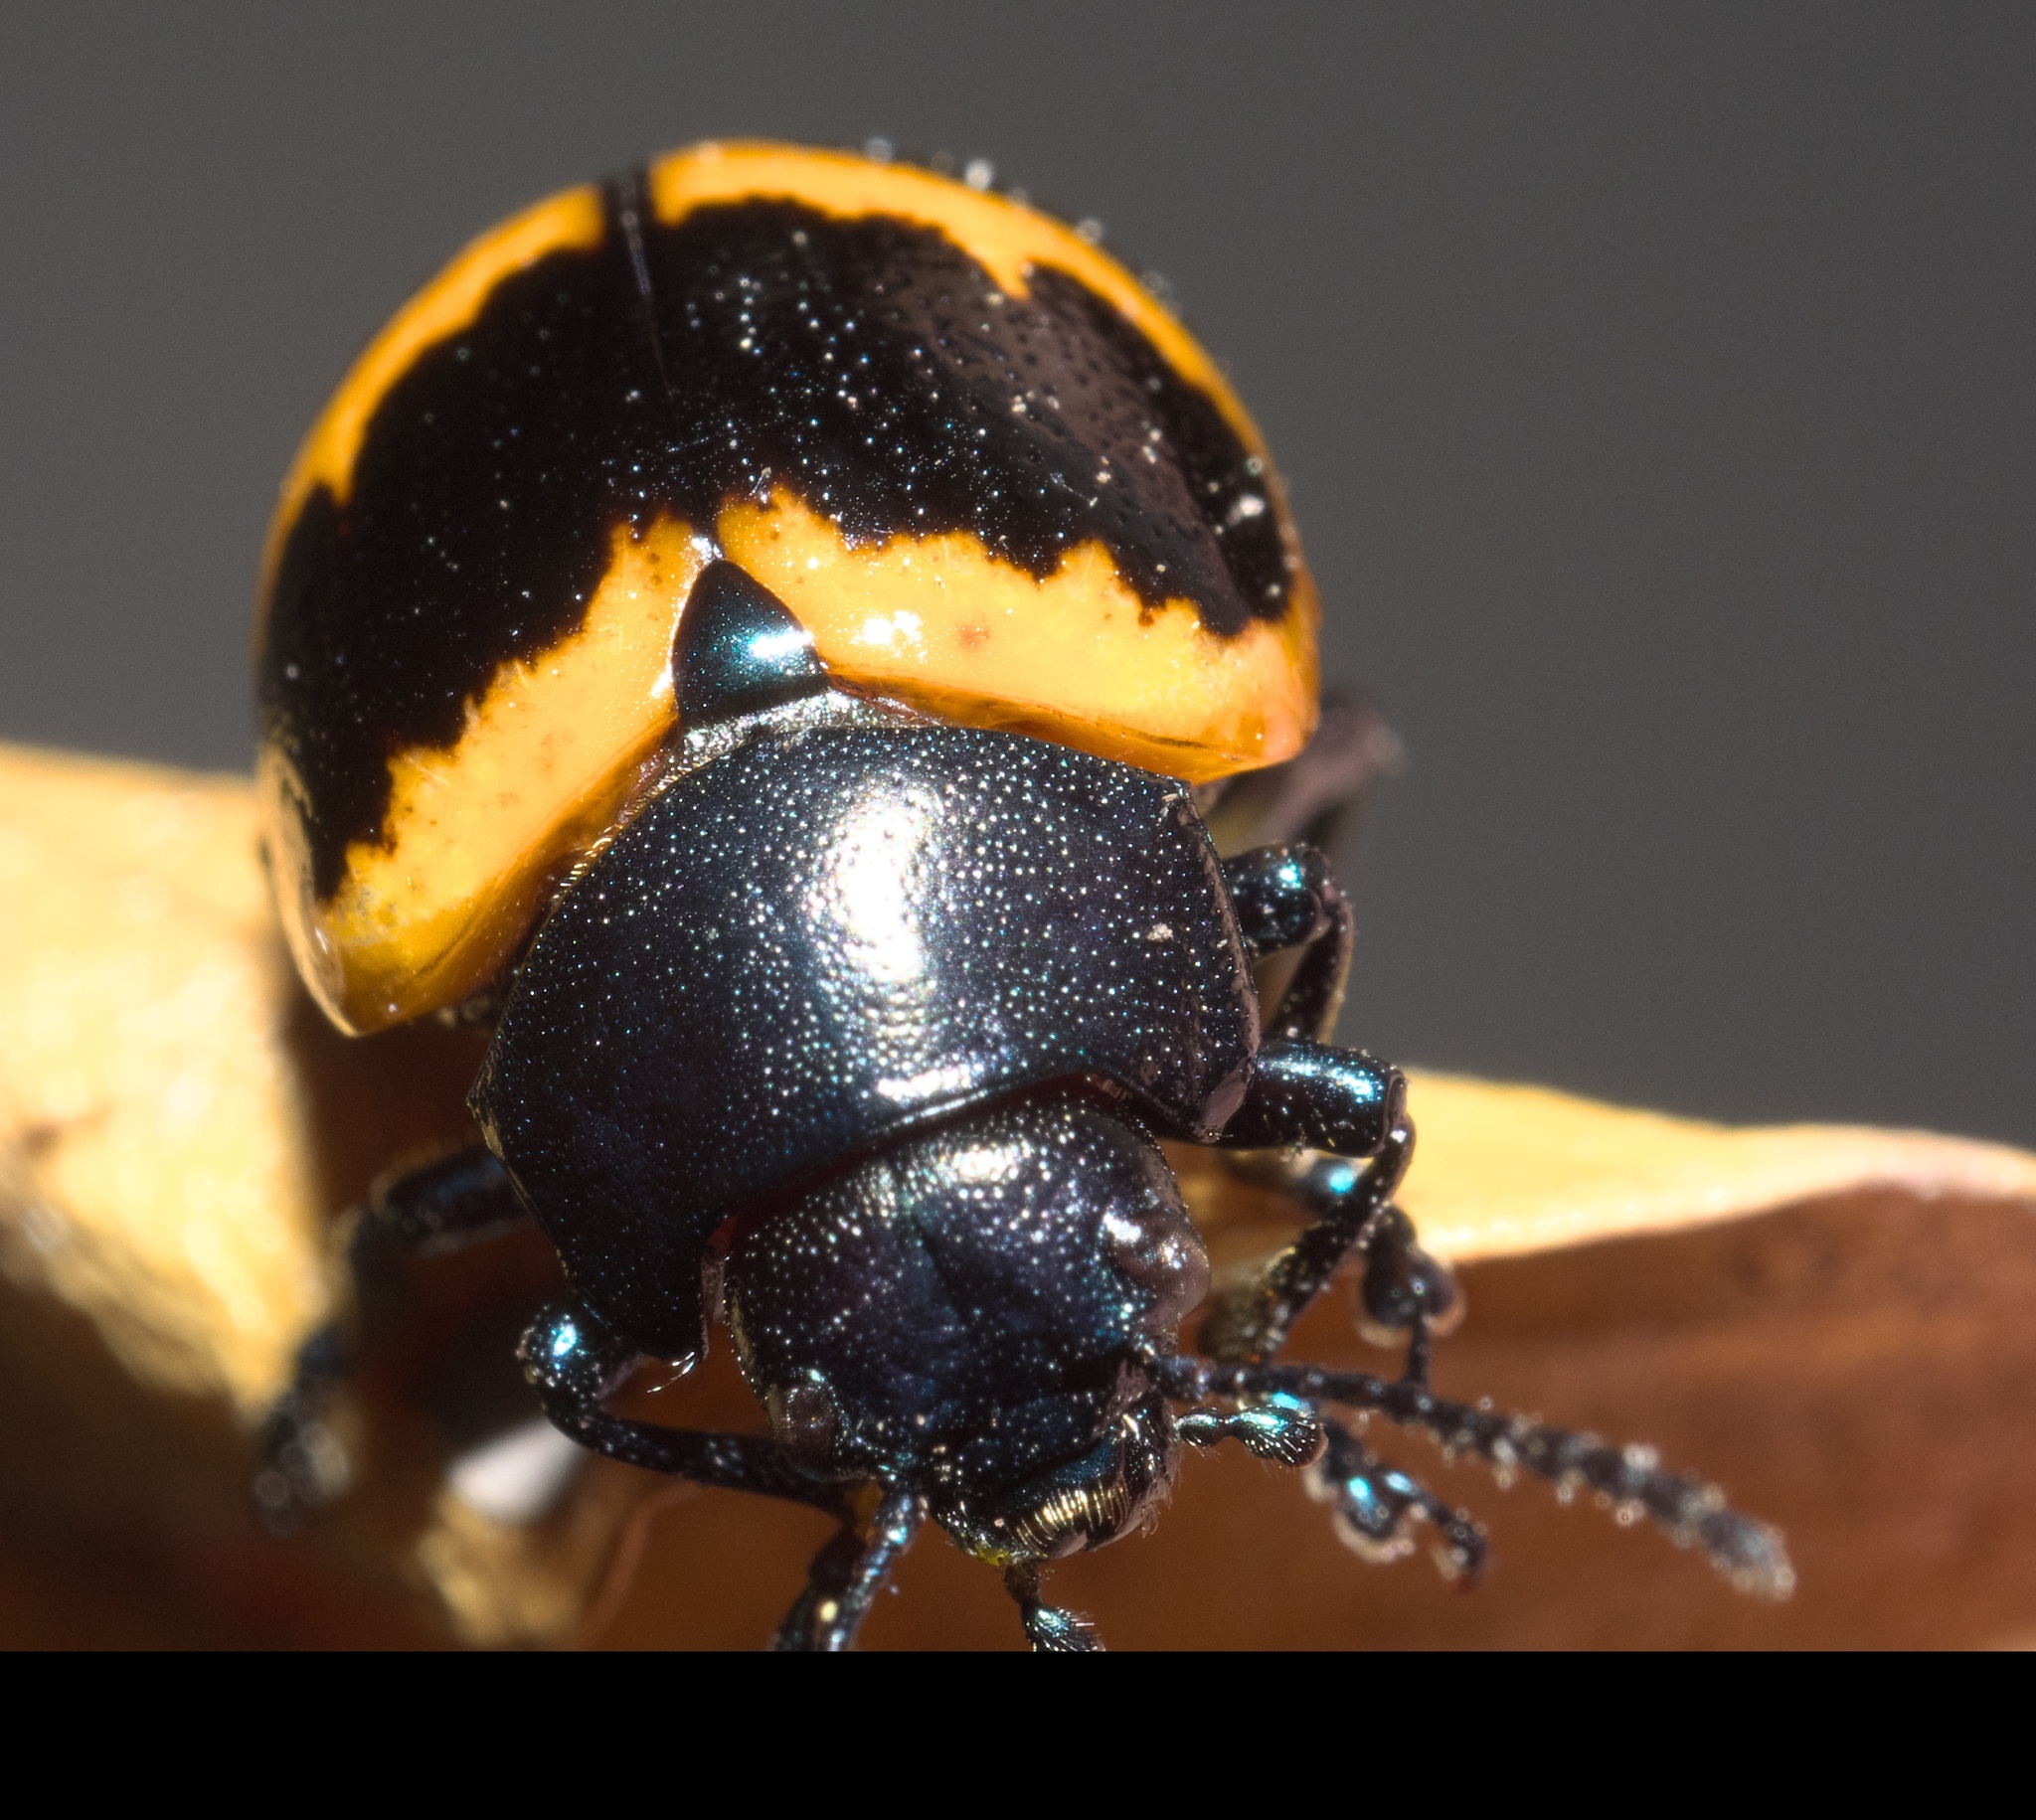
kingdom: Animalia
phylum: Arthropoda
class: Insecta
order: Coleoptera
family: Chrysomelidae
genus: Labidomera
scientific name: Labidomera clivicollis
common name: Swamp milkweed leaf beetle
